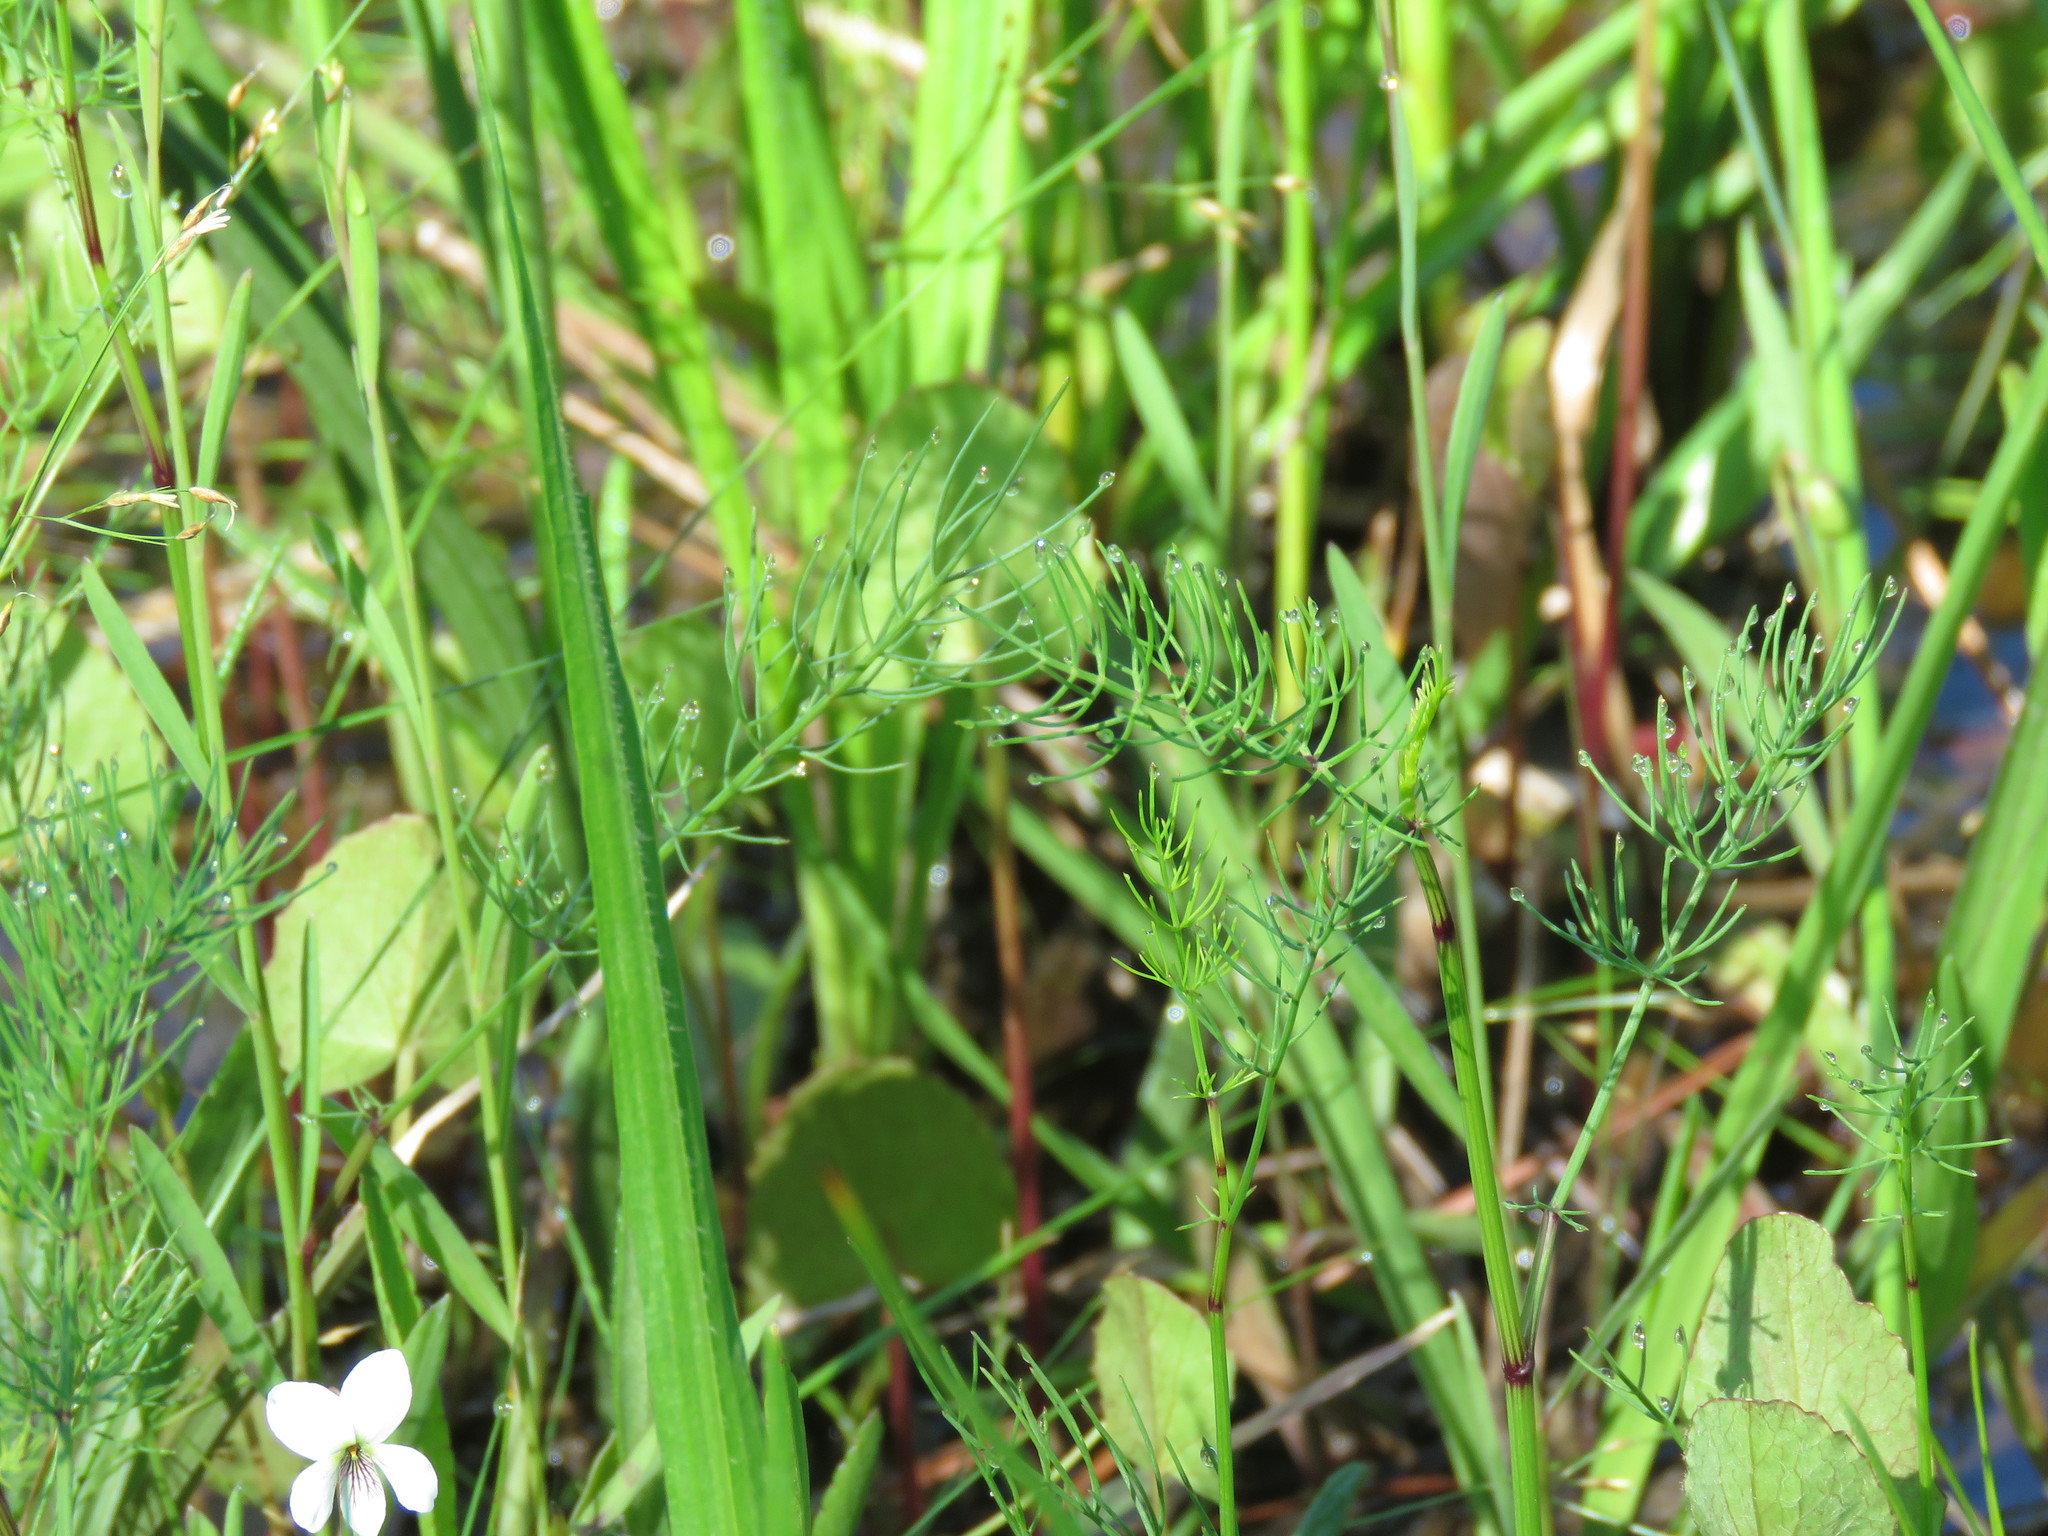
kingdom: Plantae
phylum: Tracheophyta
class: Magnoliopsida
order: Apiales
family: Apiaceae
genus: Ptilimnium
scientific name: Ptilimnium capillaceum
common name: Herbwilliam
